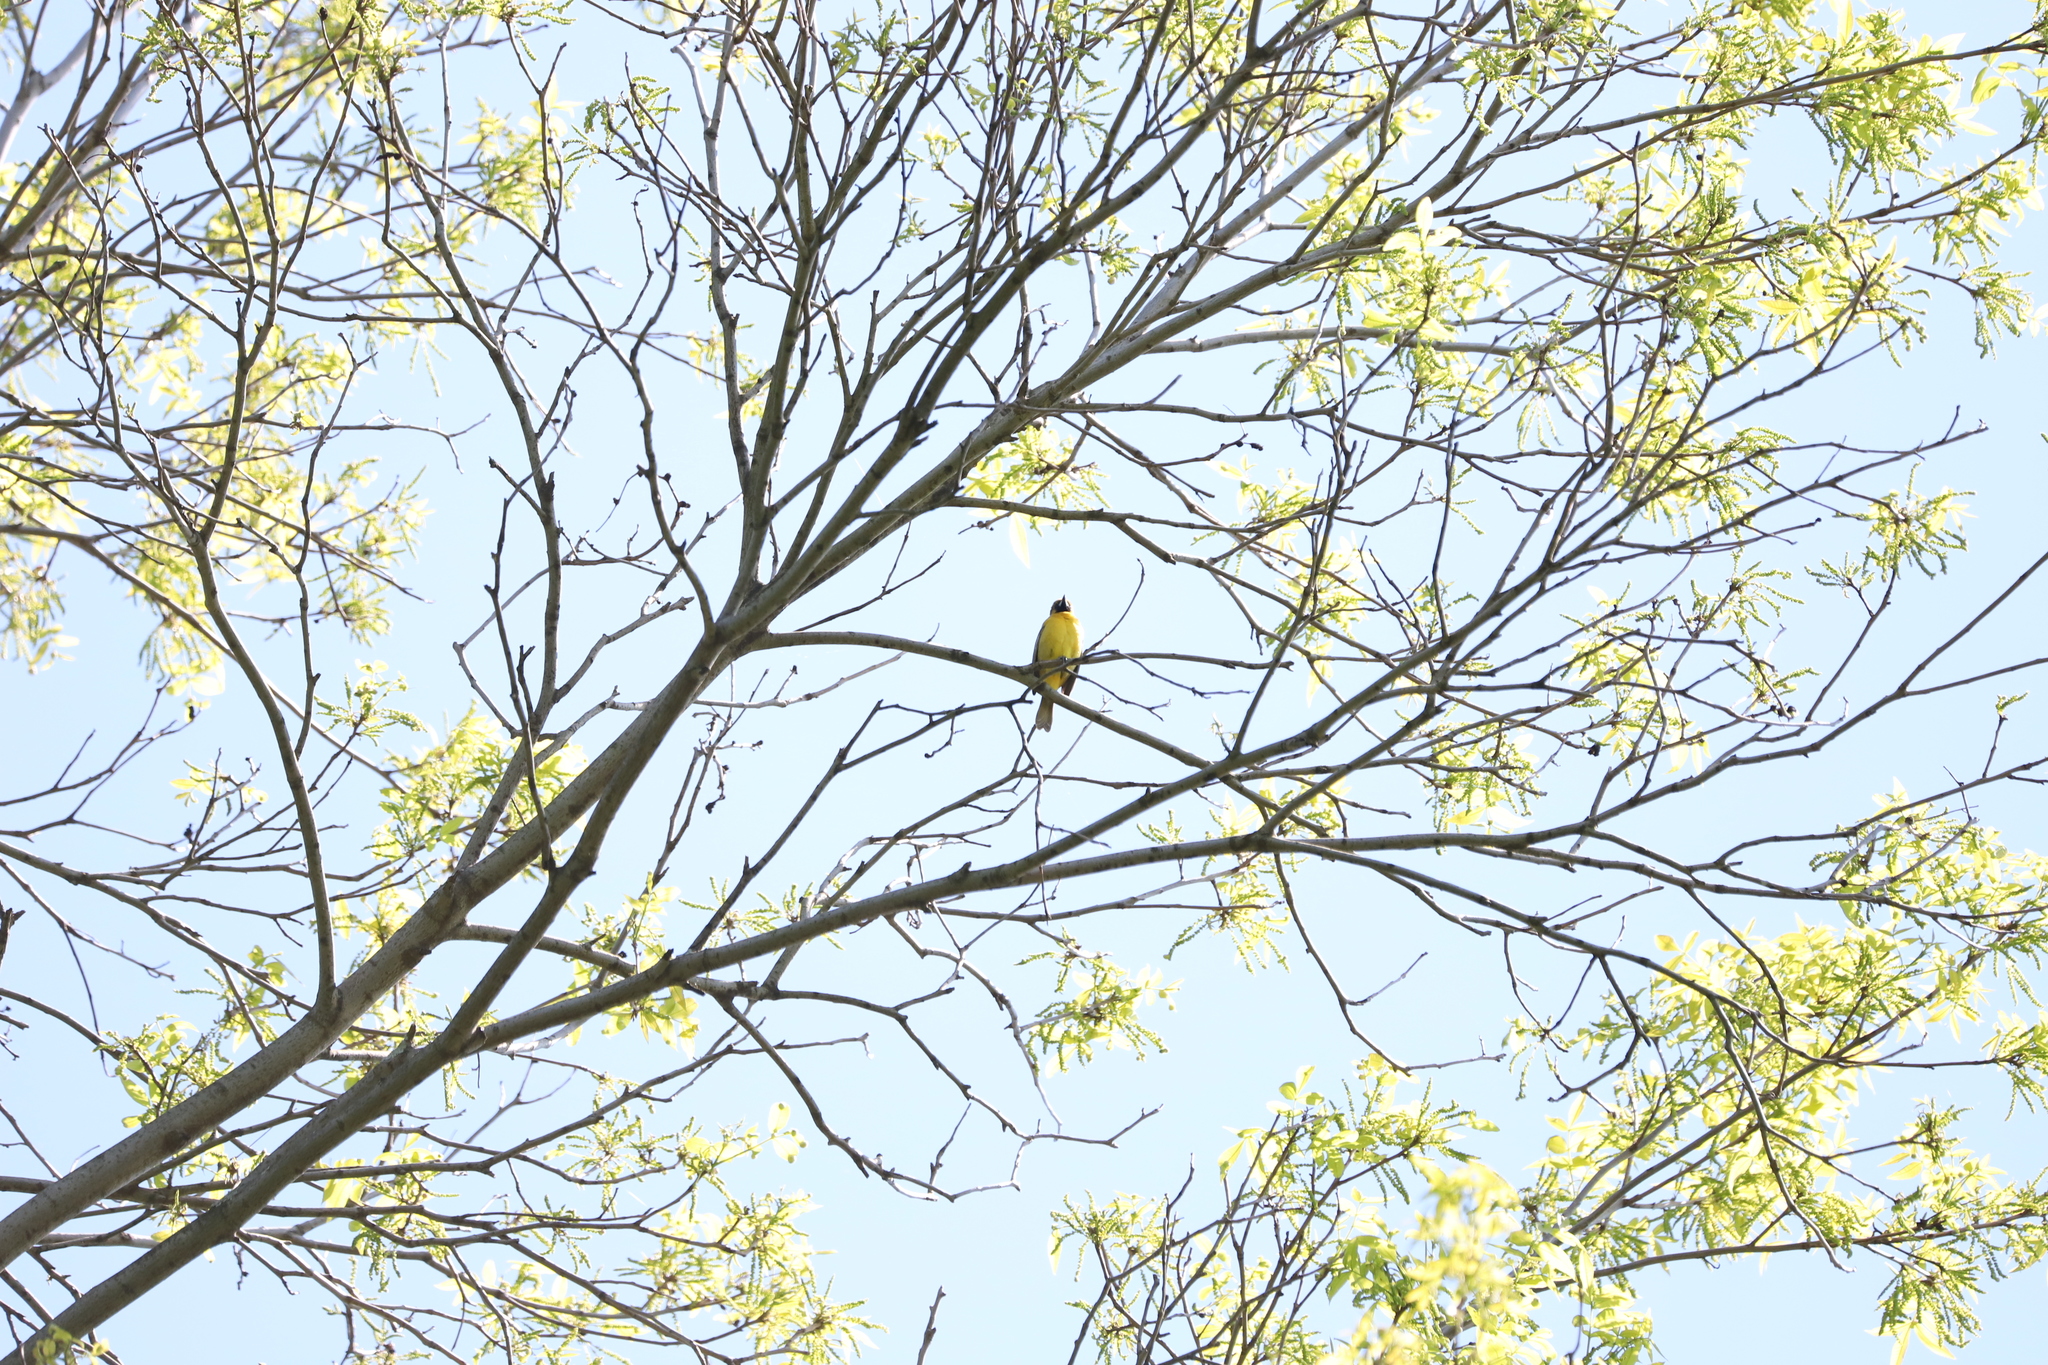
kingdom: Animalia
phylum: Chordata
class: Aves
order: Passeriformes
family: Icteridae
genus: Icterus
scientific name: Icterus spurius
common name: Orchard oriole
